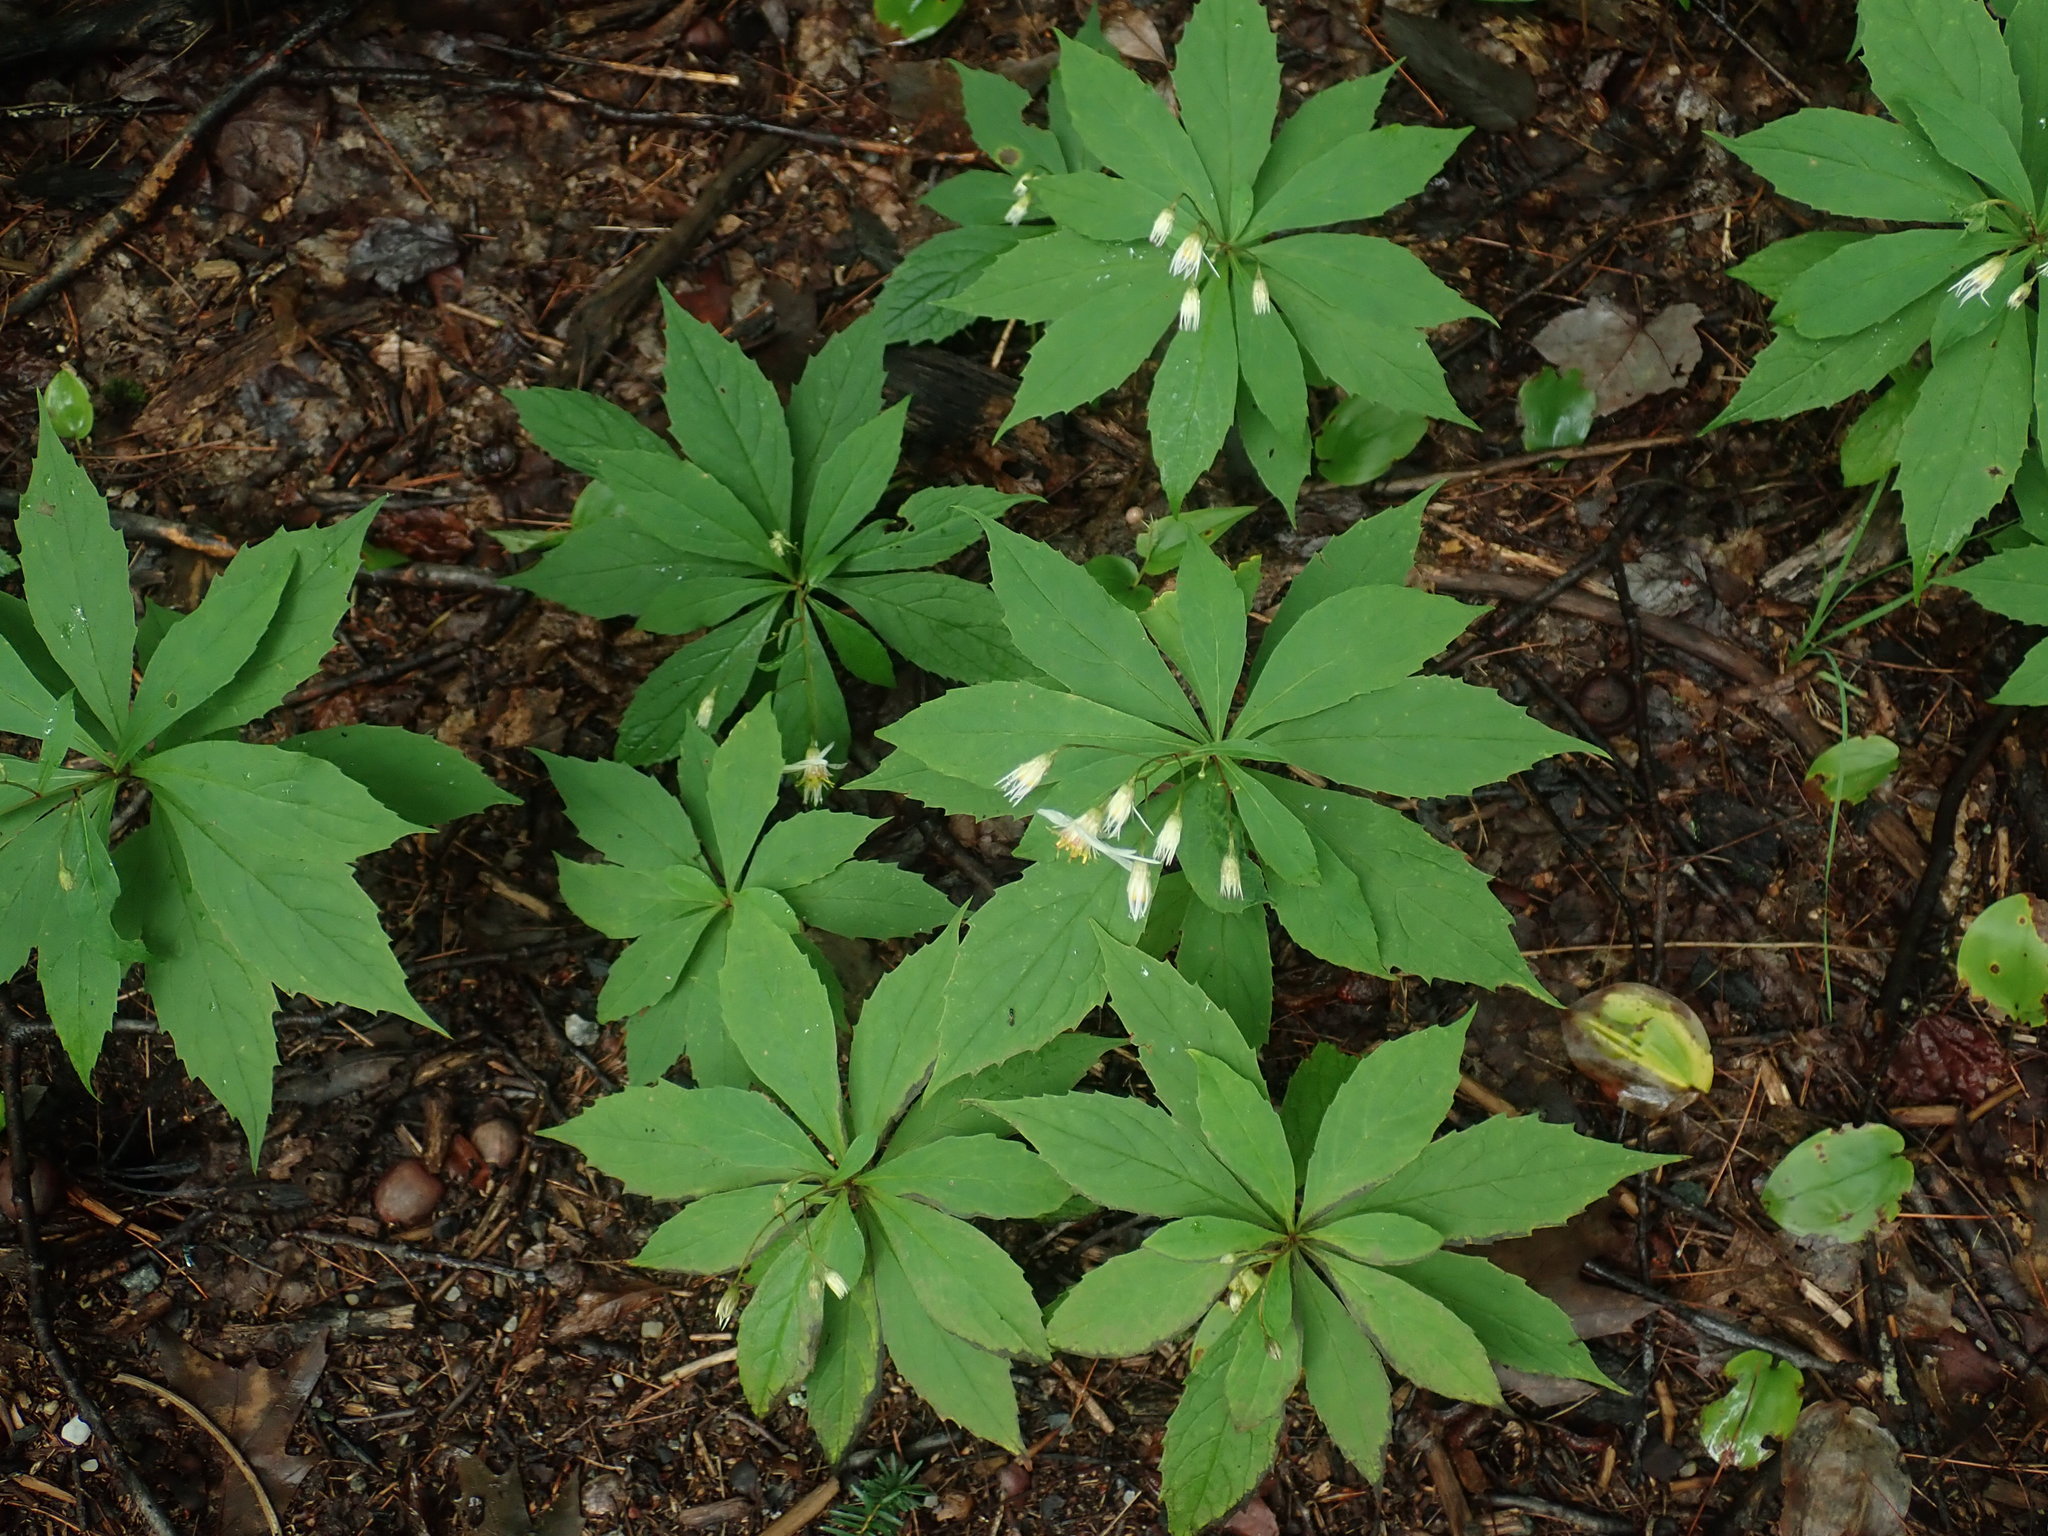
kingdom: Plantae
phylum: Tracheophyta
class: Magnoliopsida
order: Asterales
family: Asteraceae
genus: Oclemena
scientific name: Oclemena acuminata
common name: Mountain aster
